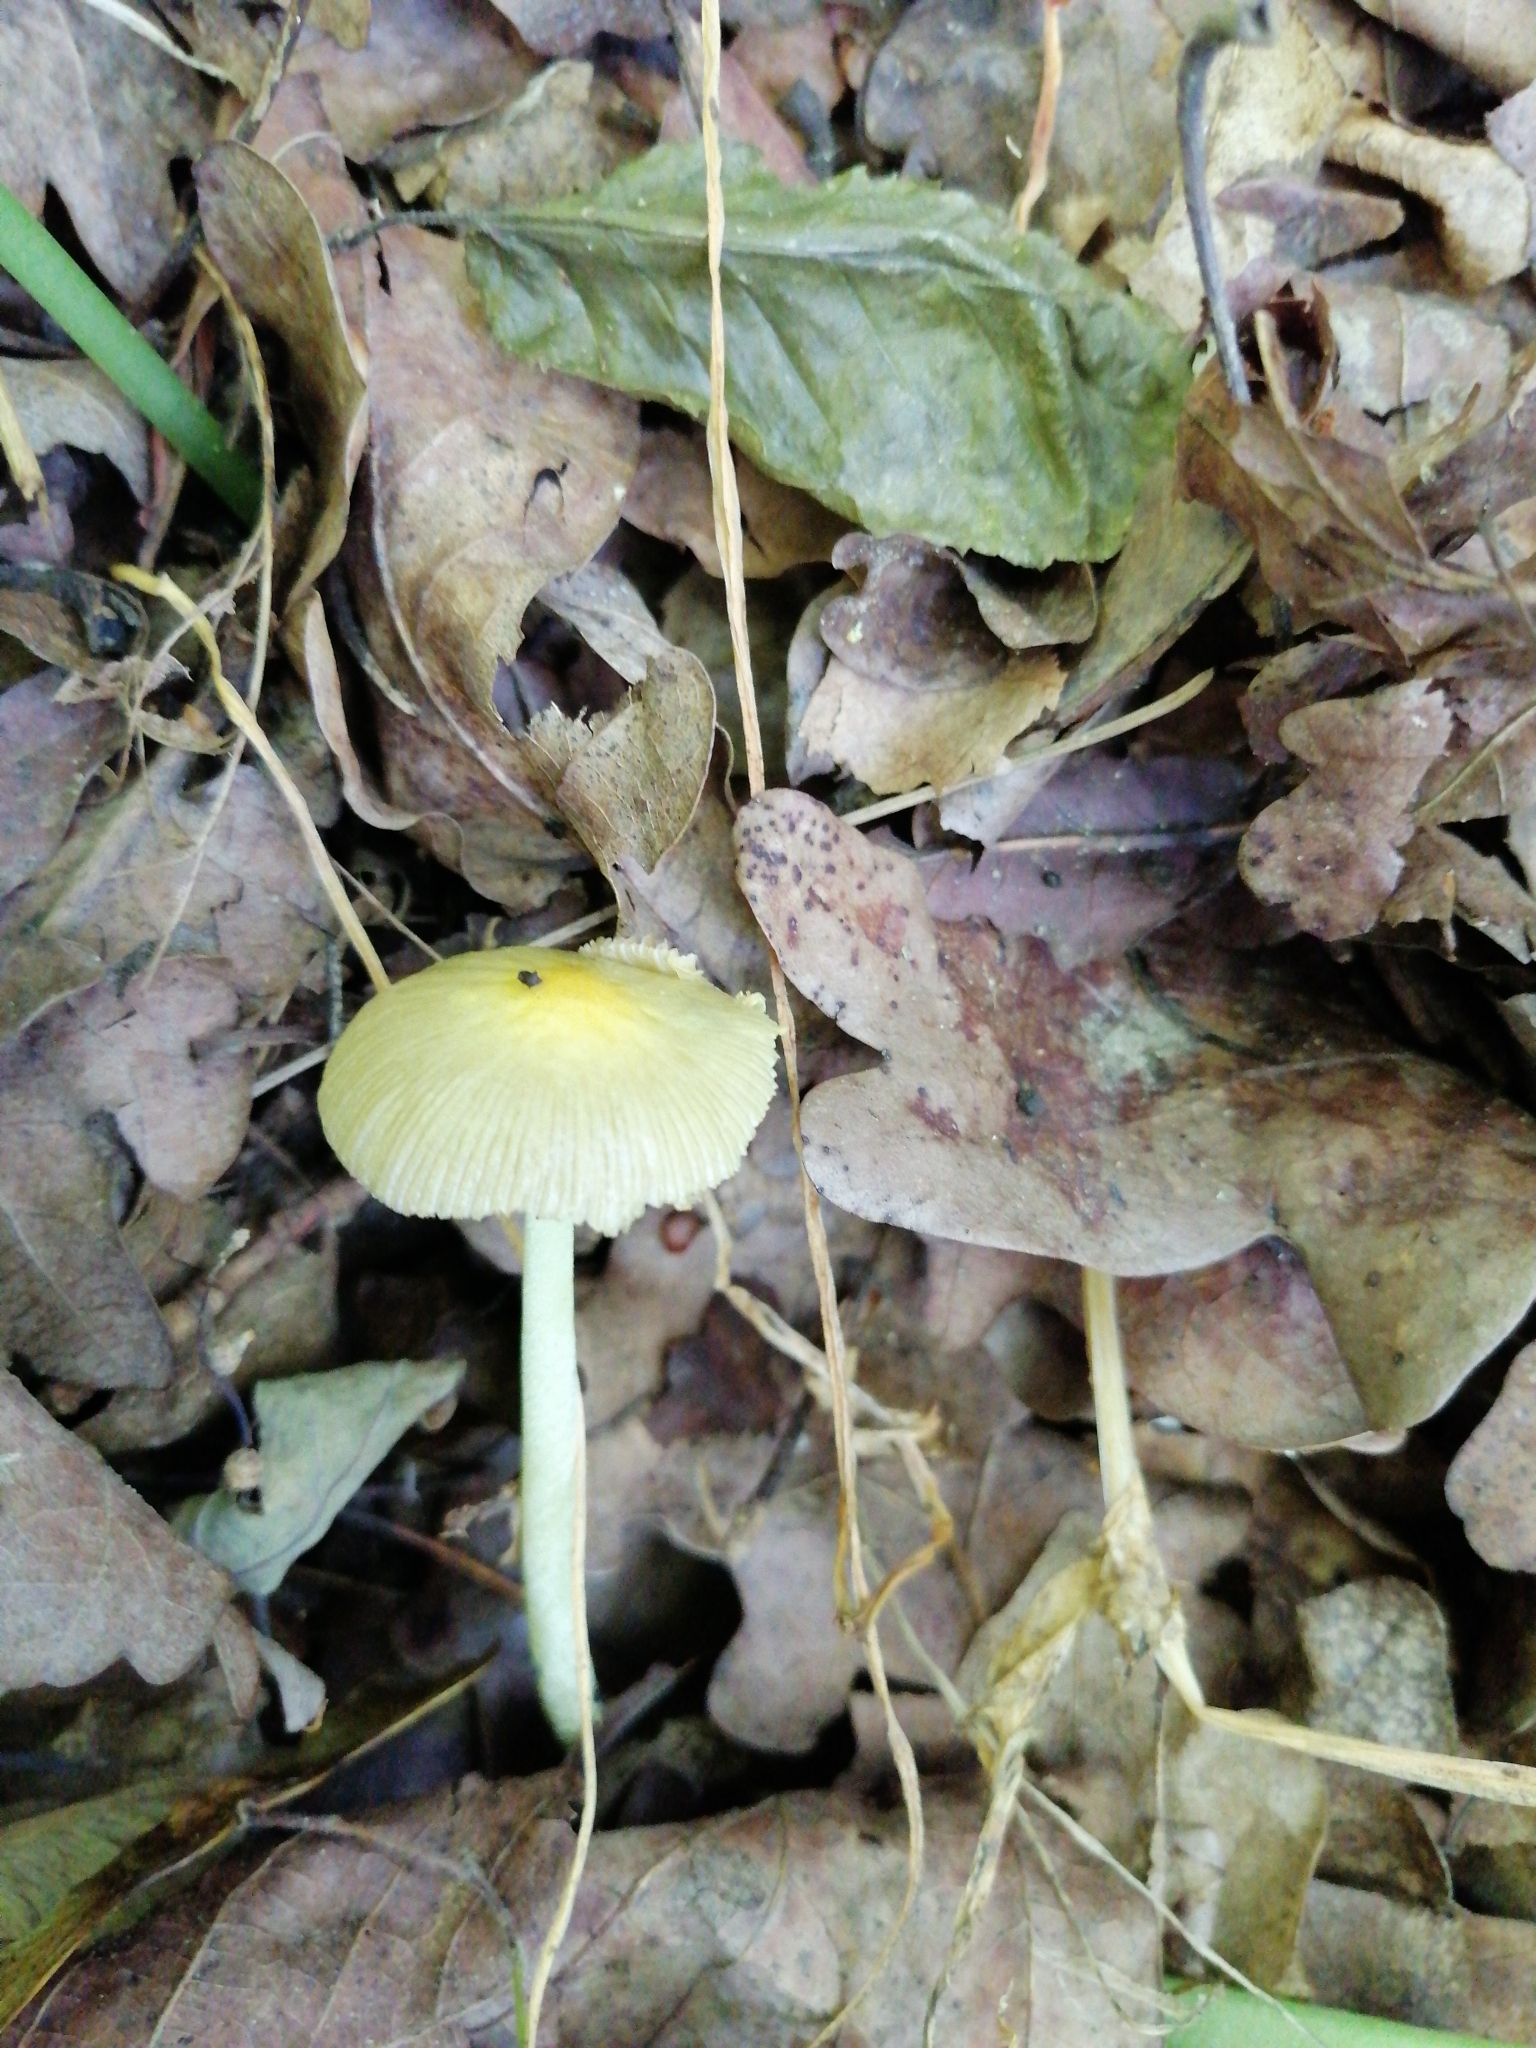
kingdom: Fungi
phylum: Basidiomycota
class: Agaricomycetes
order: Agaricales
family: Bolbitiaceae
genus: Bolbitius
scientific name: Bolbitius titubans
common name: Yellow fieldcap
